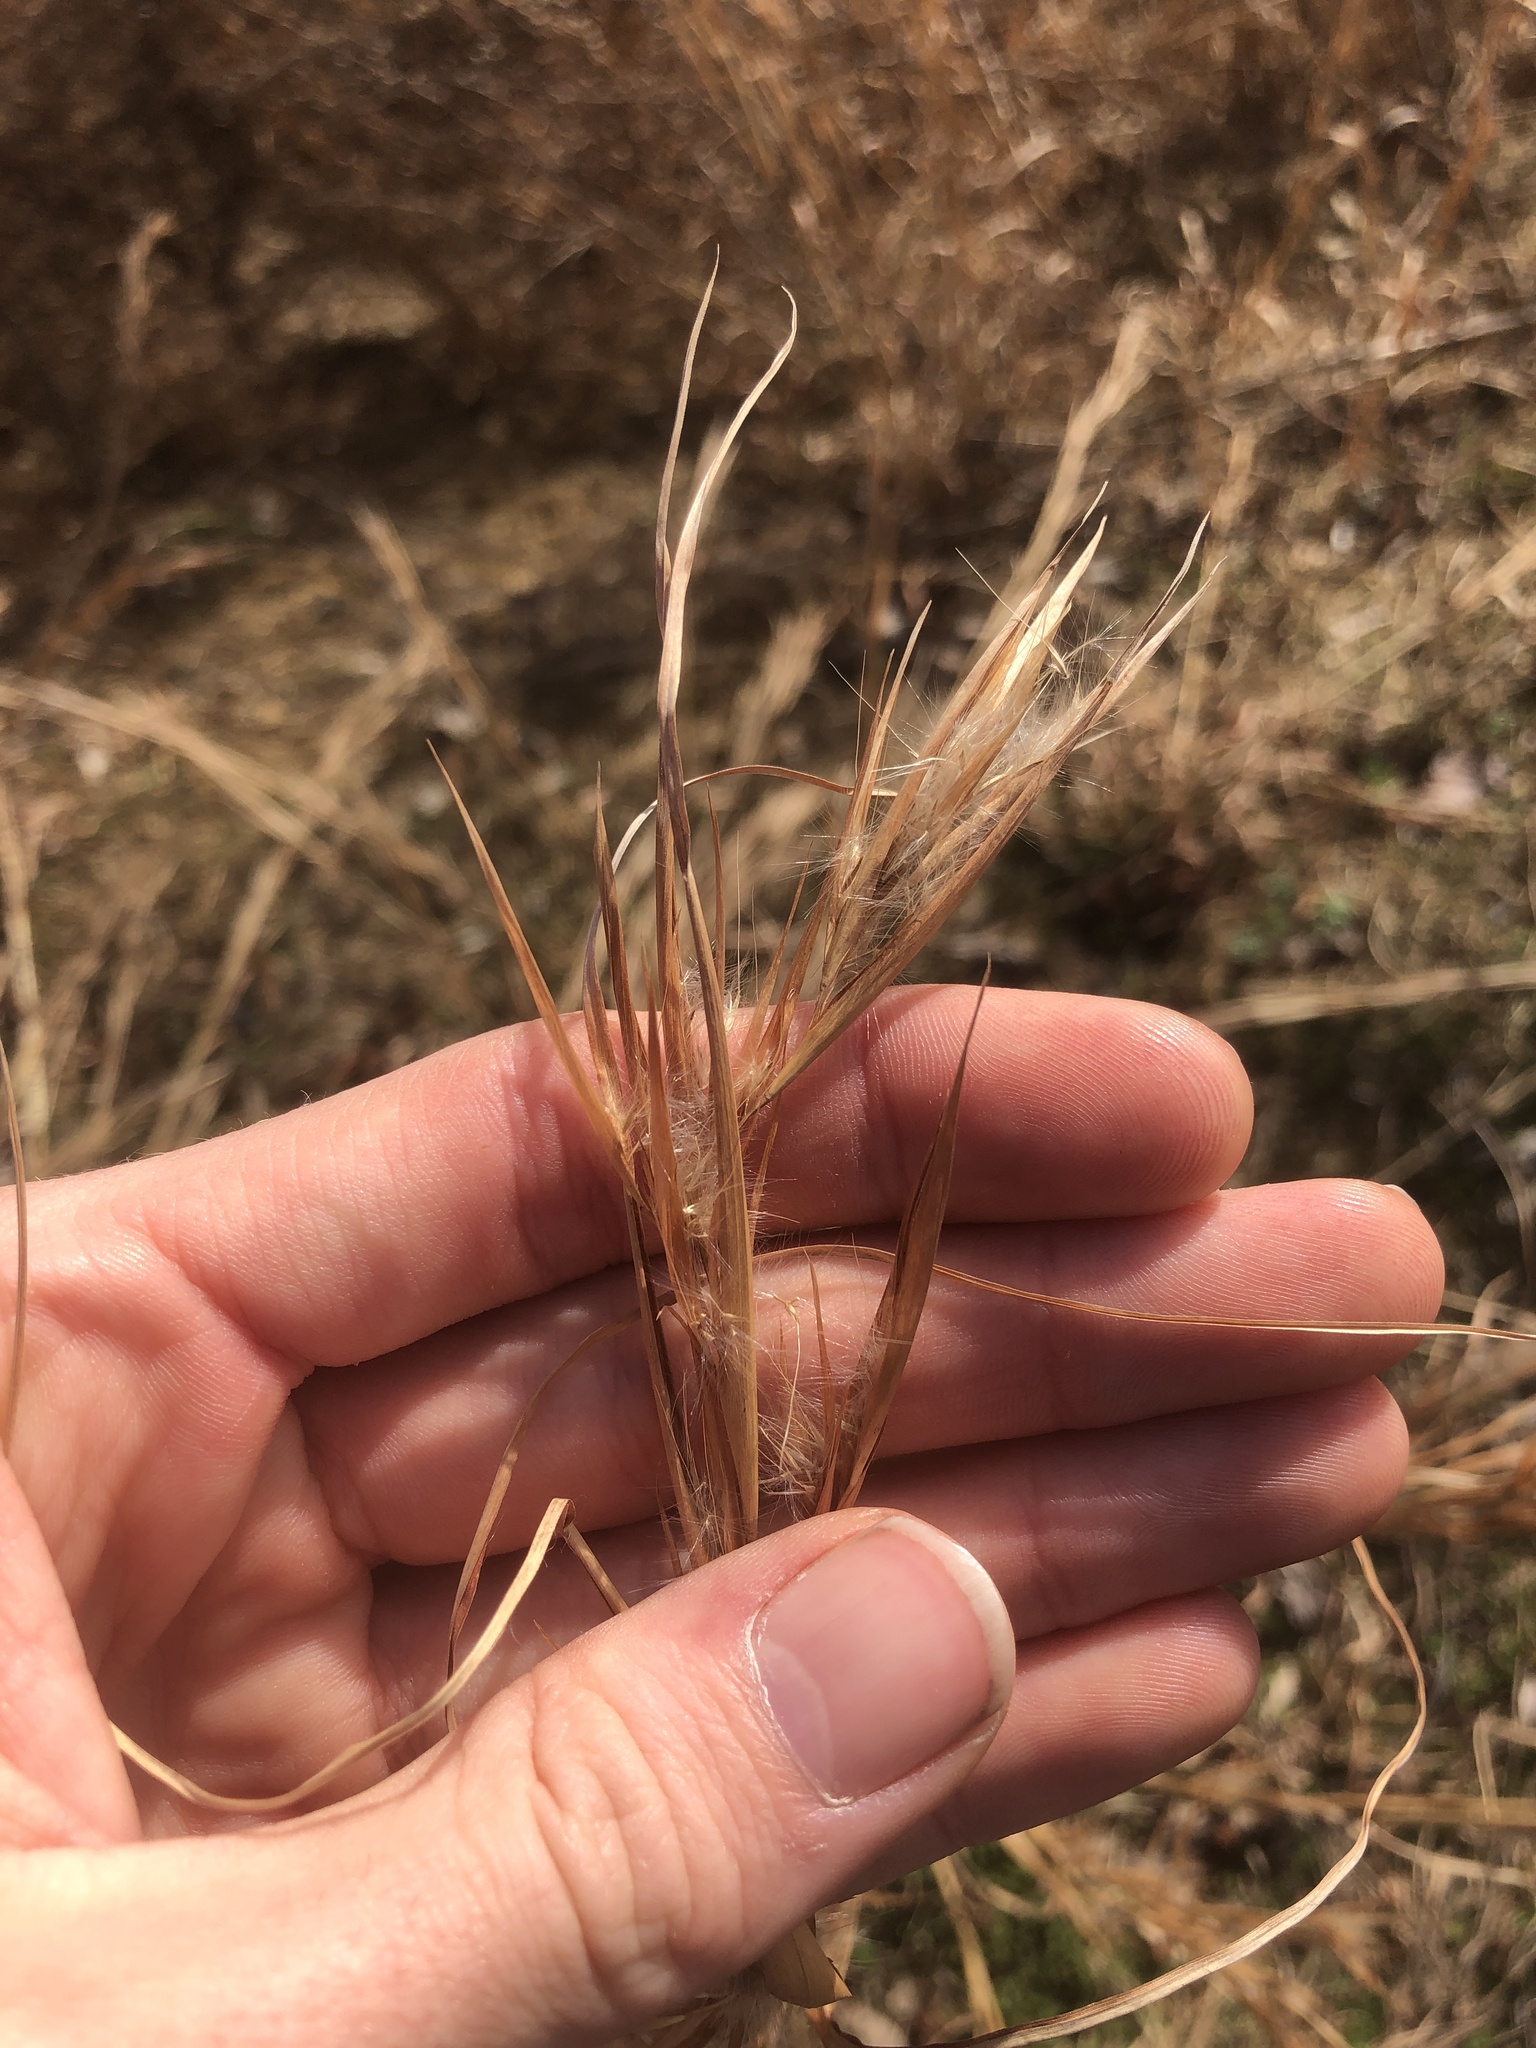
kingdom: Plantae
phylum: Tracheophyta
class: Liliopsida
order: Poales
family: Poaceae
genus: Andropogon
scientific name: Andropogon virginicus
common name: Broomsedge bluestem
